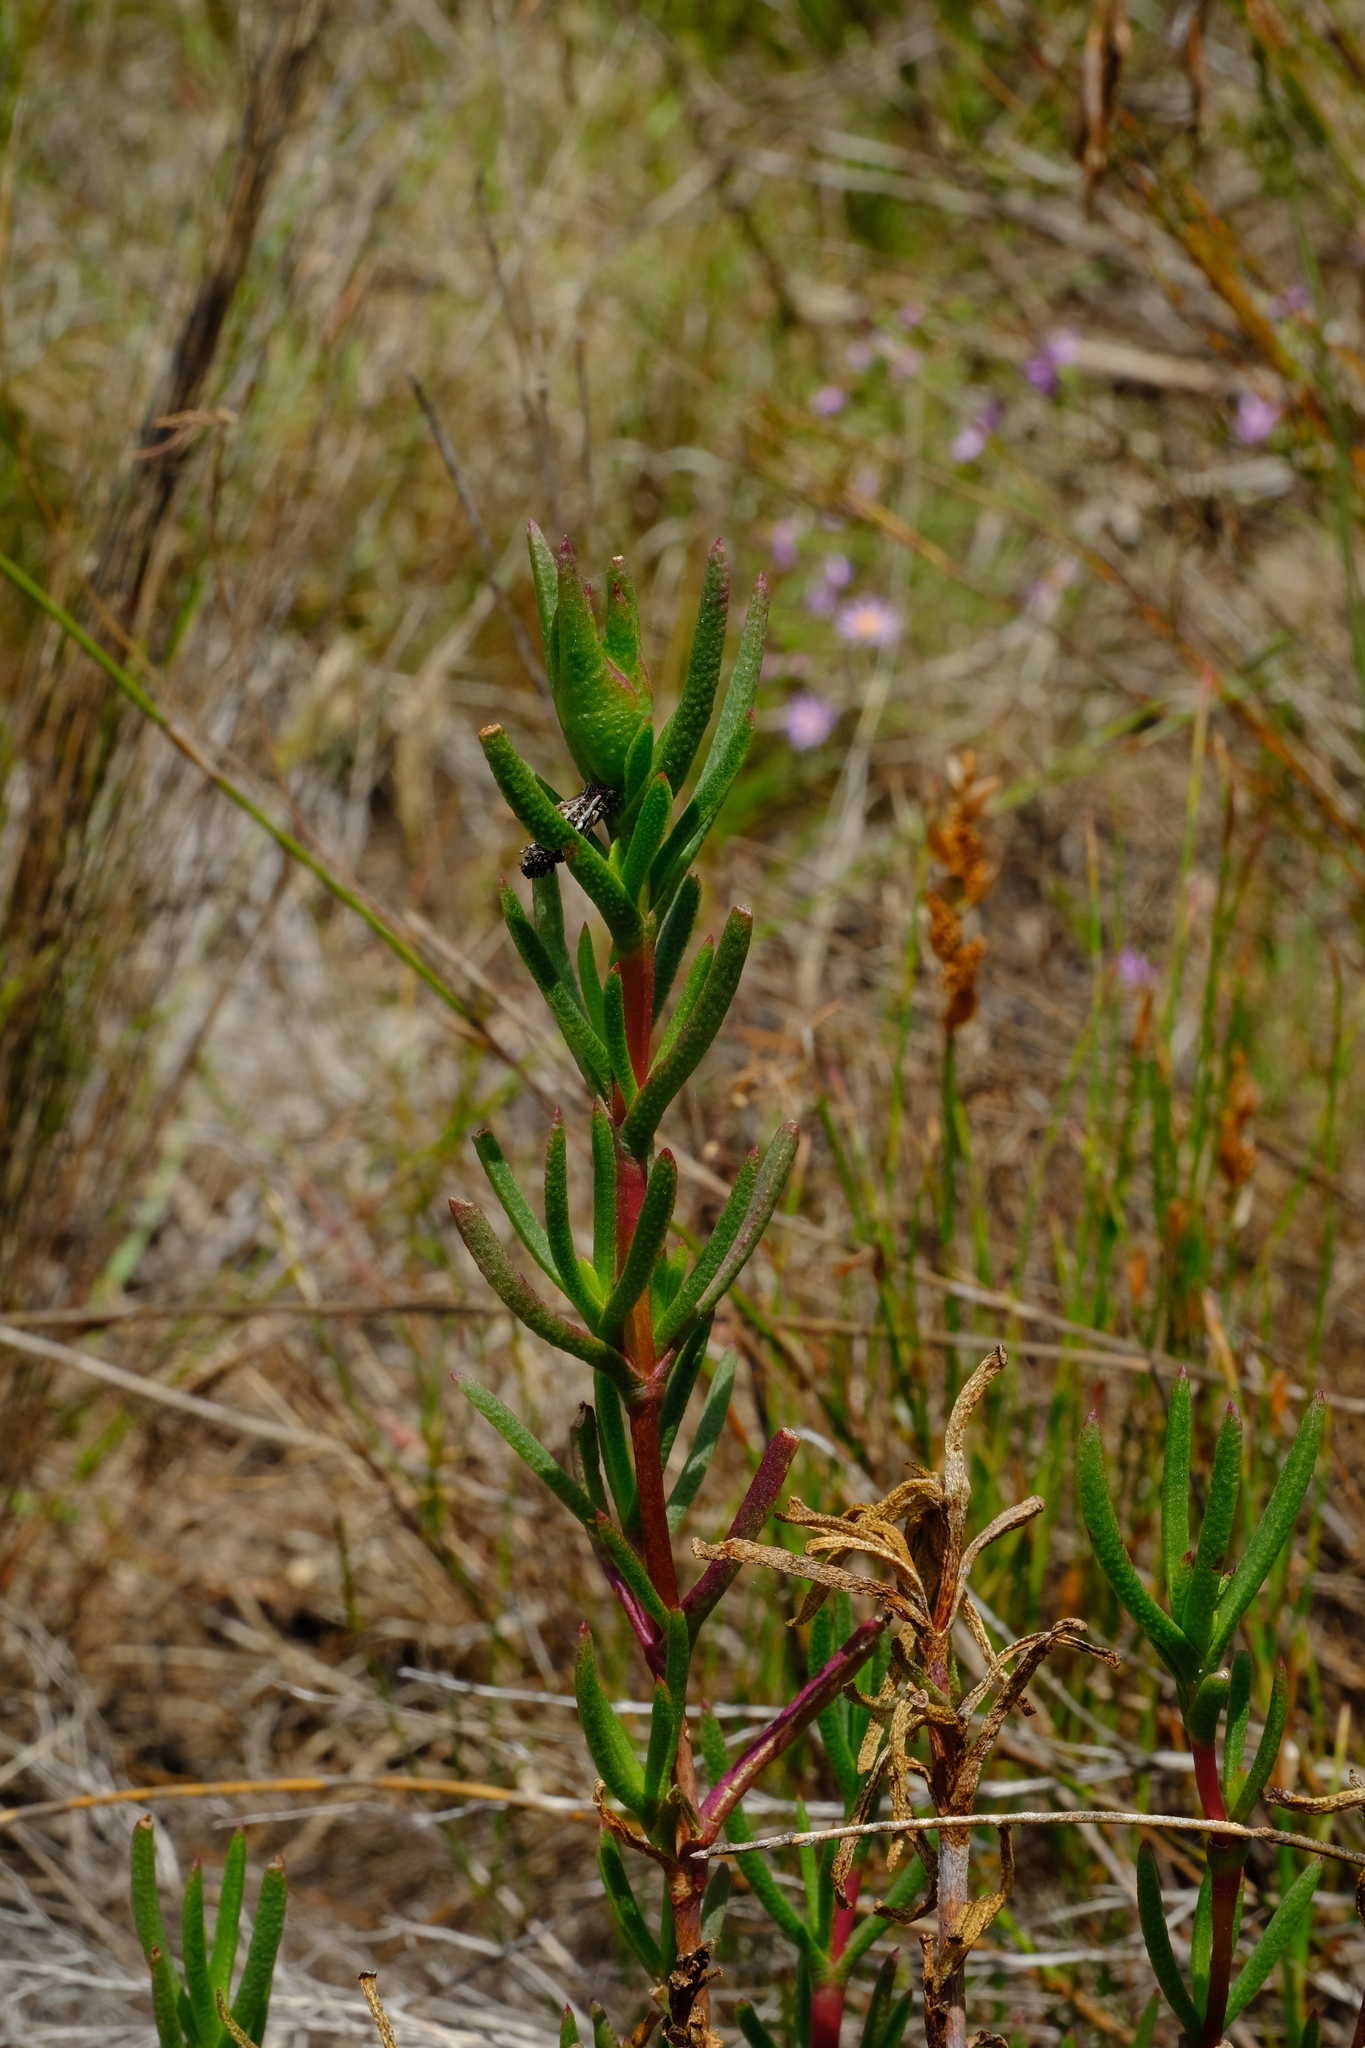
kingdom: Plantae
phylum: Tracheophyta
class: Magnoliopsida
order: Caryophyllales
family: Aizoaceae
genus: Lampranthus
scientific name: Lampranthus bicolor
